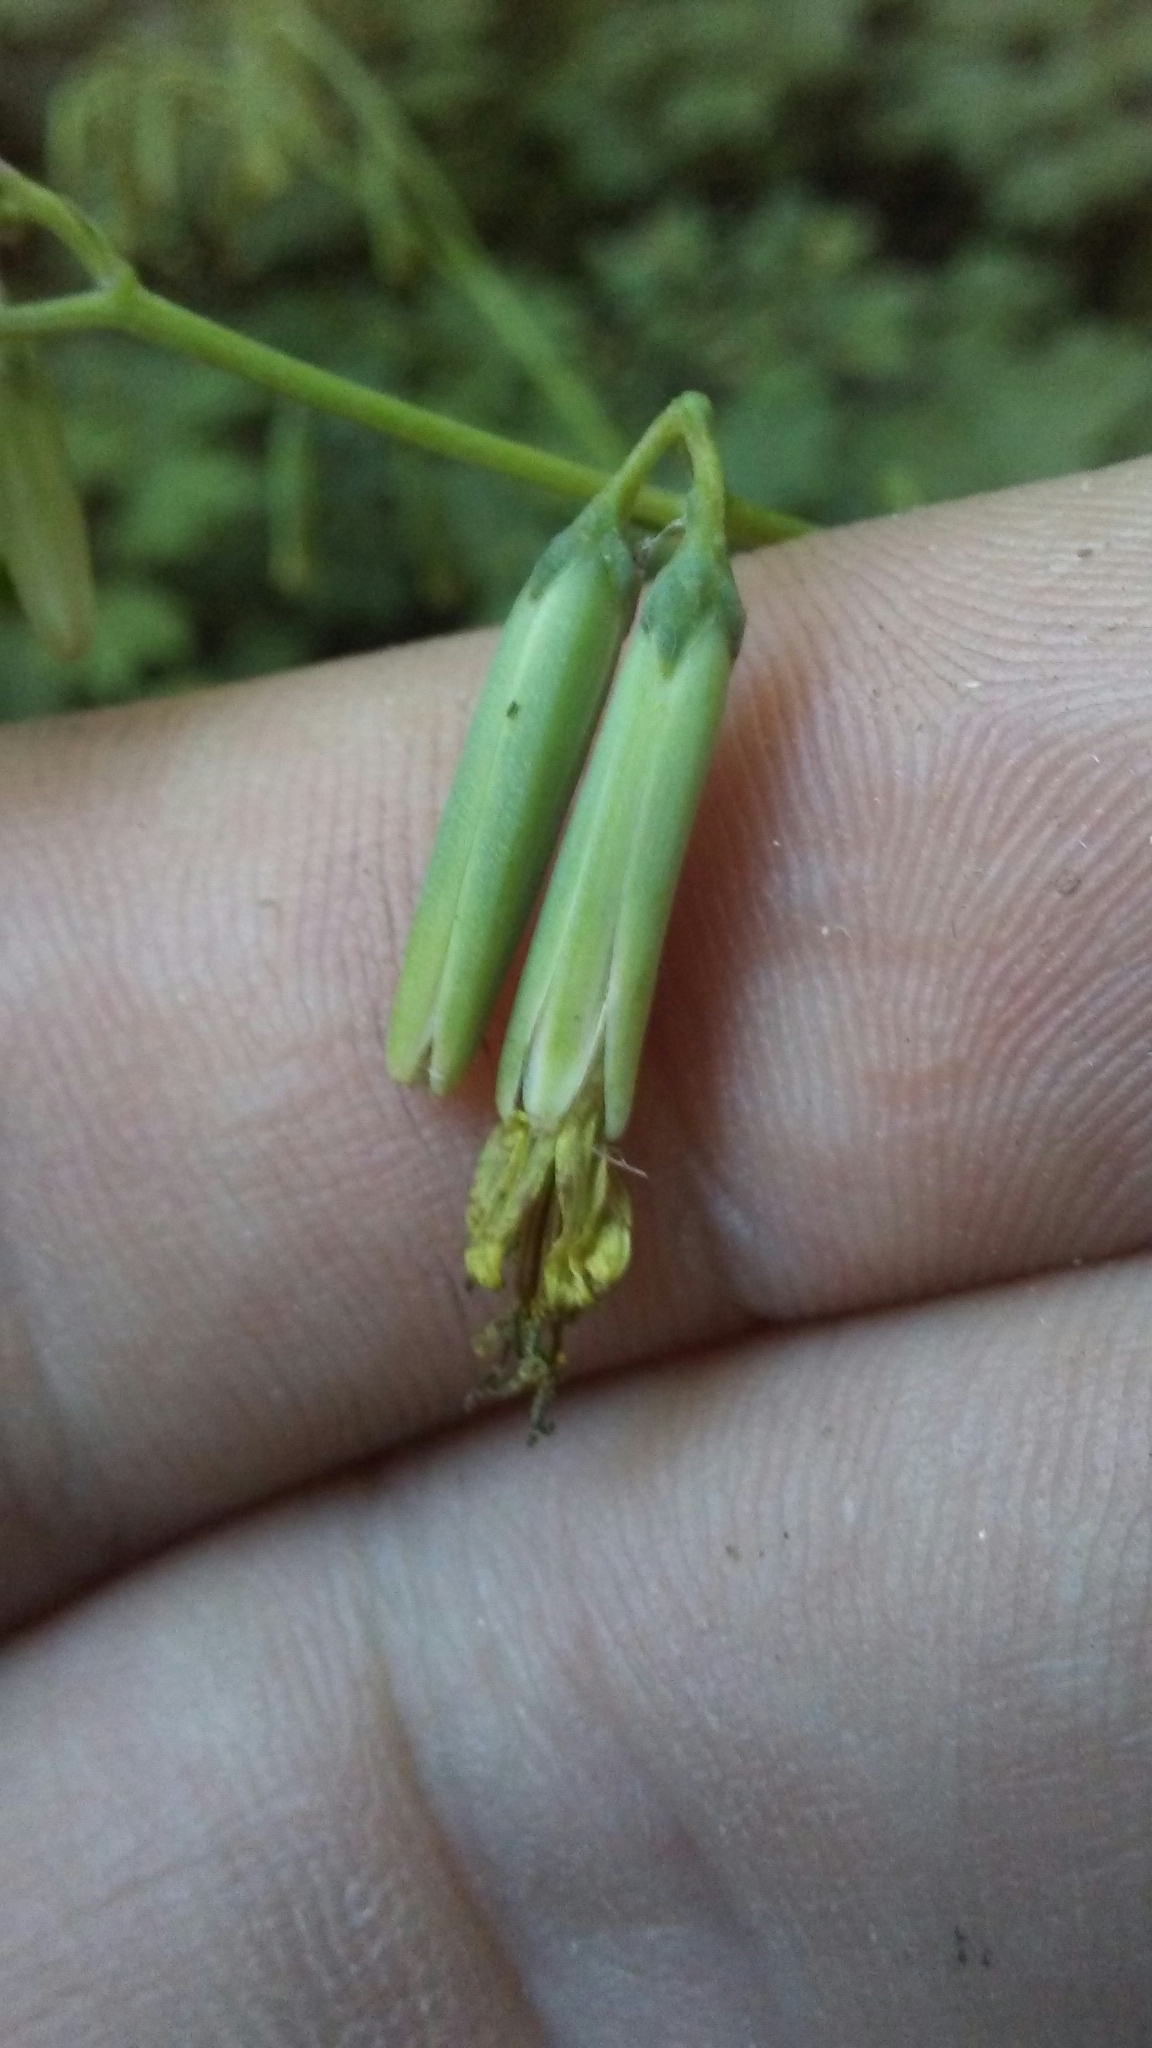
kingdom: Plantae
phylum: Tracheophyta
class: Magnoliopsida
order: Asterales
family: Asteraceae
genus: Nabalus
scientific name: Nabalus altissima
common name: Tall rattlesnakeroot
